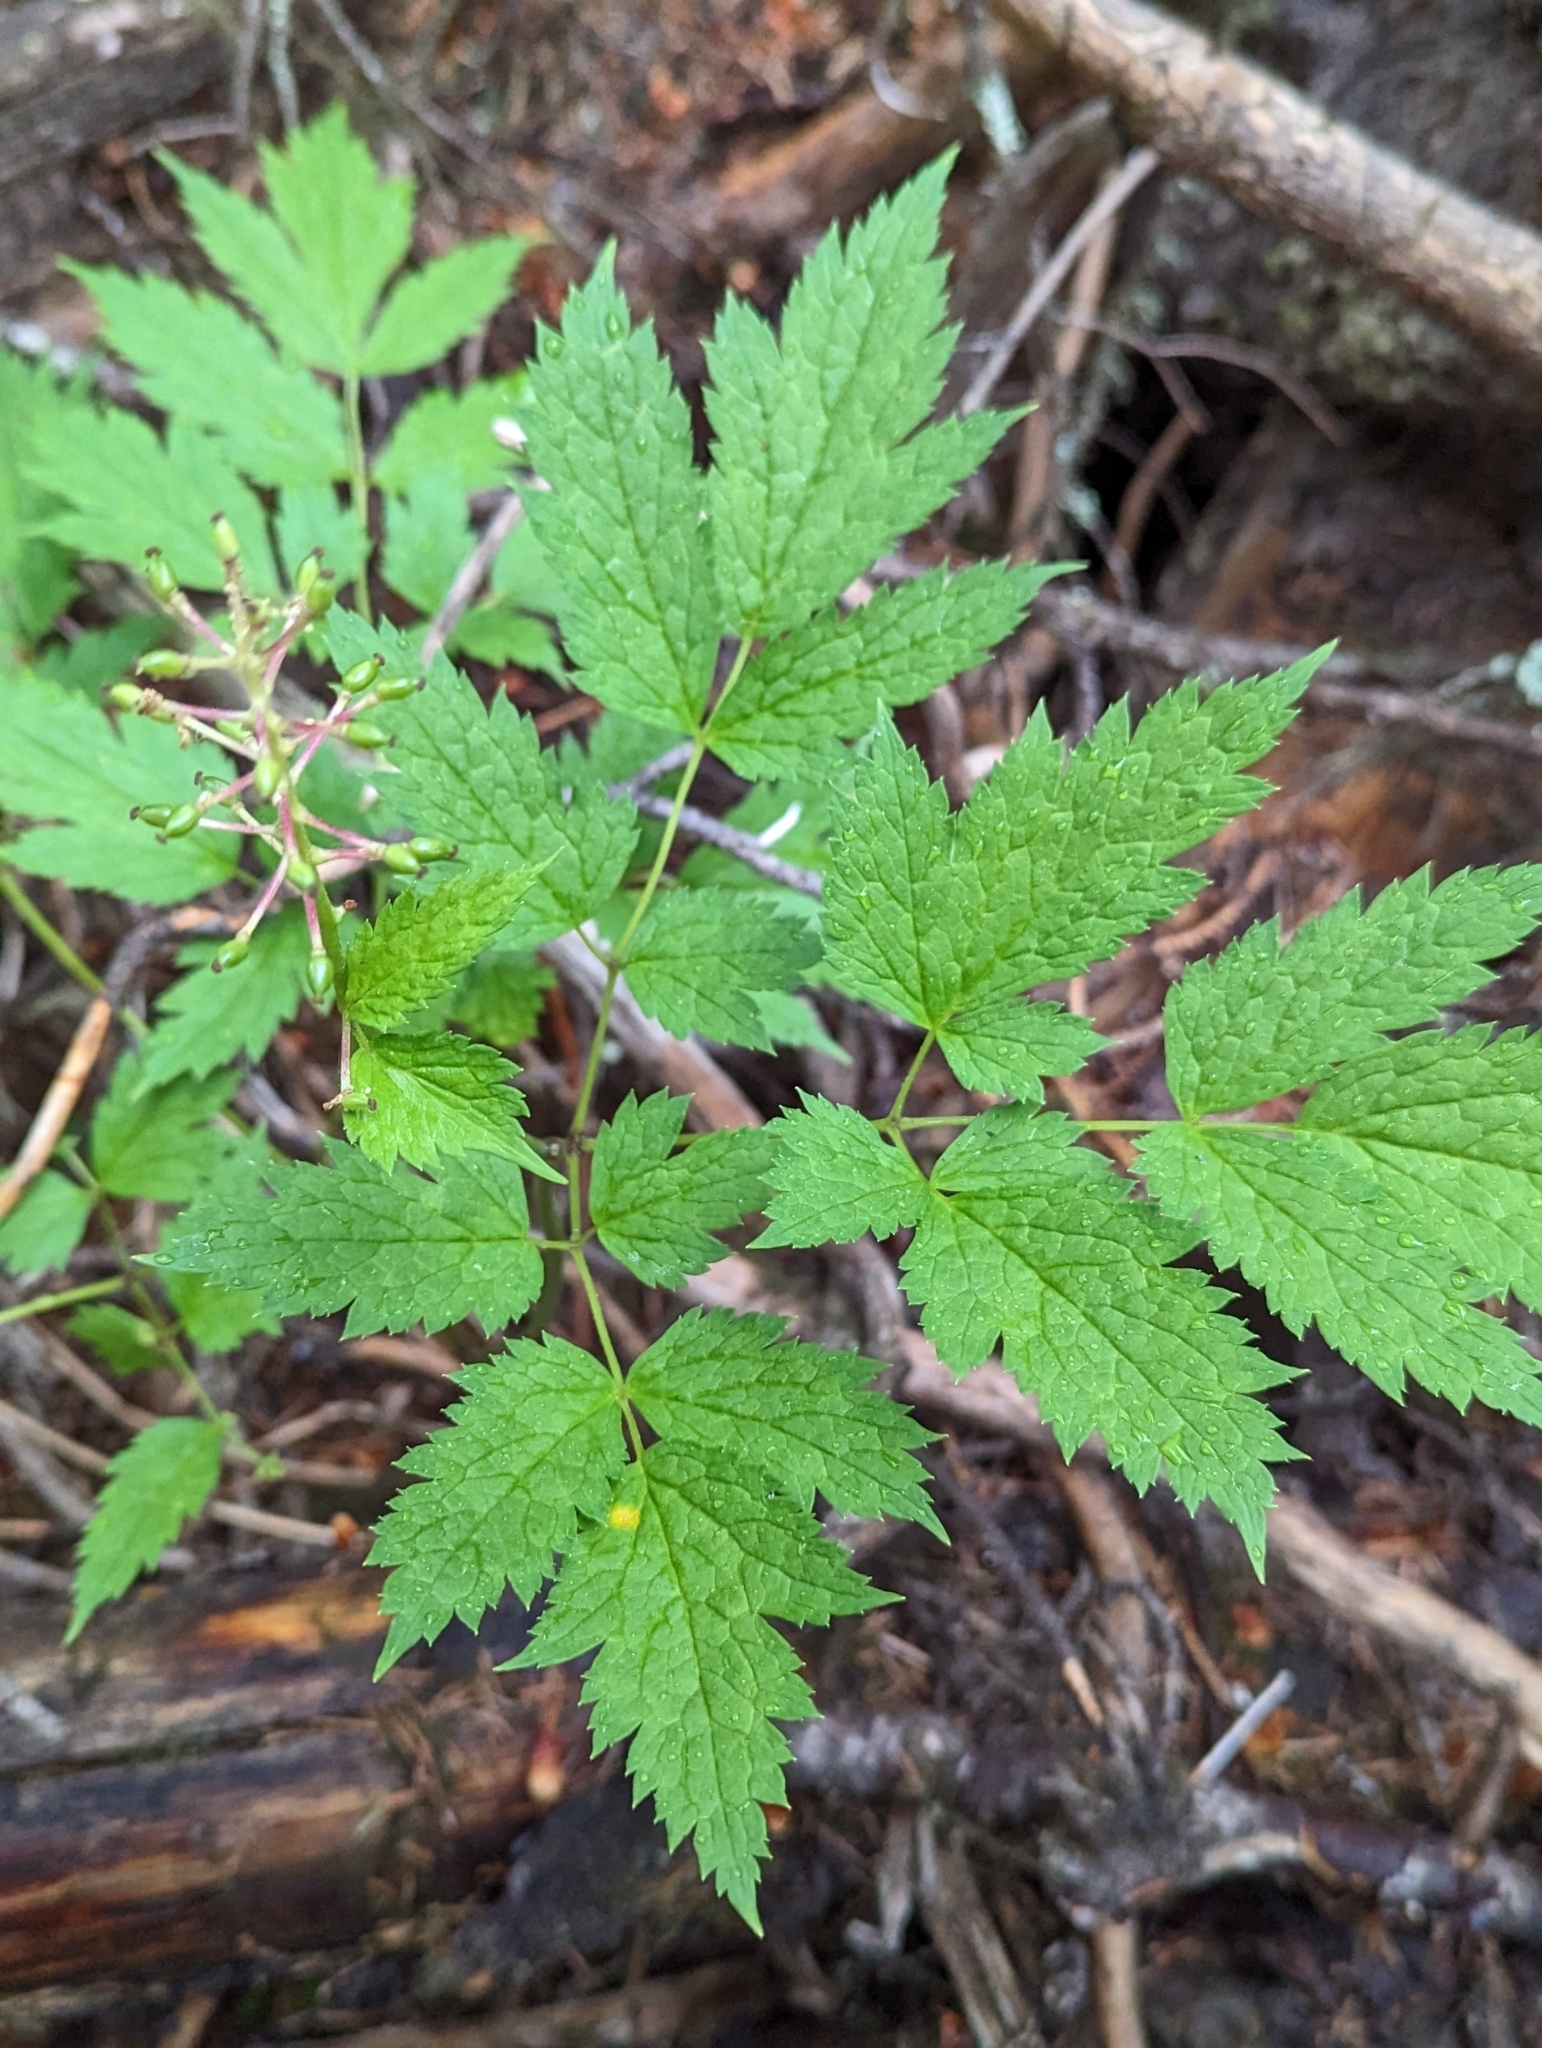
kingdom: Plantae
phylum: Tracheophyta
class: Magnoliopsida
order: Ranunculales
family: Ranunculaceae
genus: Actaea
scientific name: Actaea rubra
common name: Red baneberry
